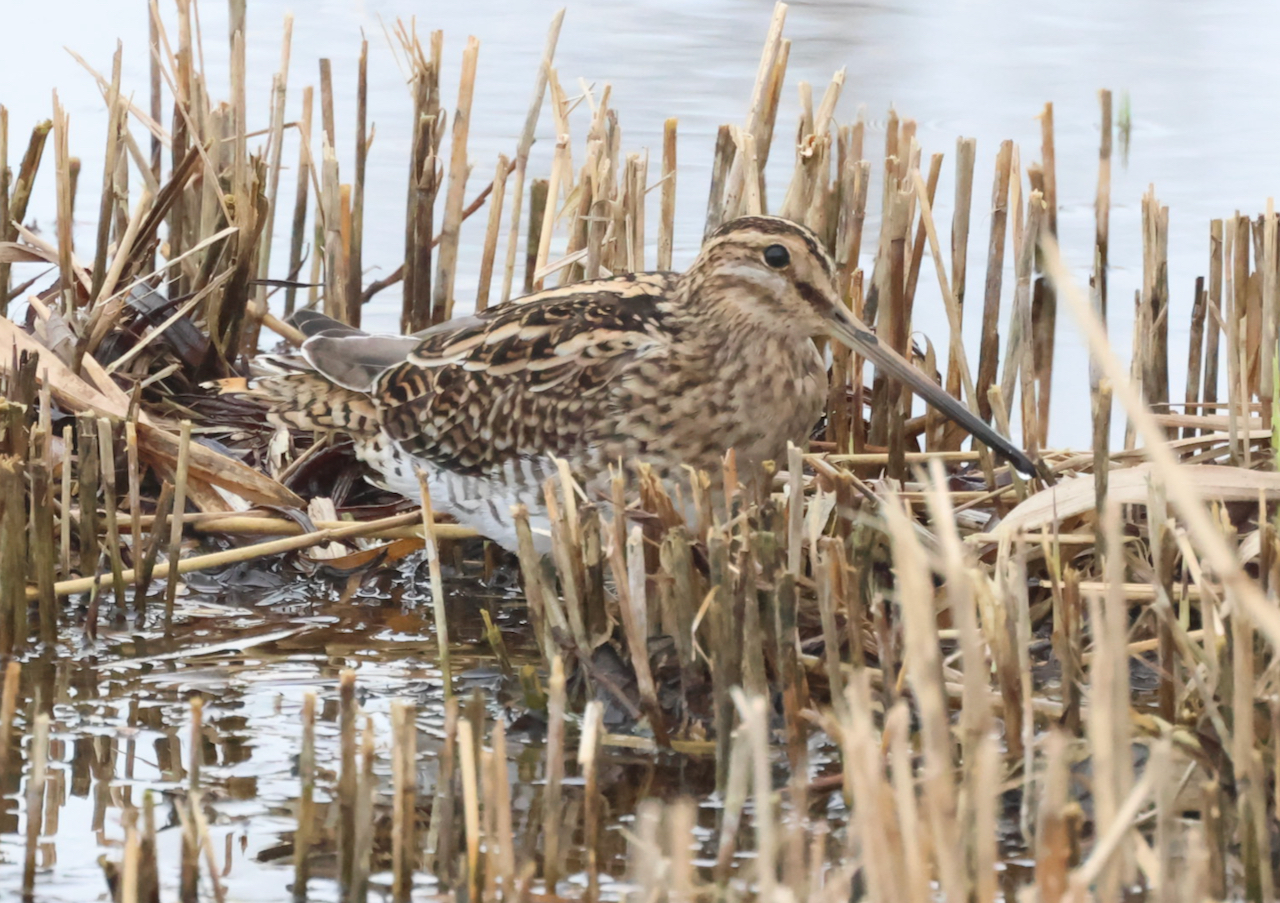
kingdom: Animalia
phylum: Chordata
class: Aves
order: Charadriiformes
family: Scolopacidae
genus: Gallinago
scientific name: Gallinago gallinago
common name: Common snipe
